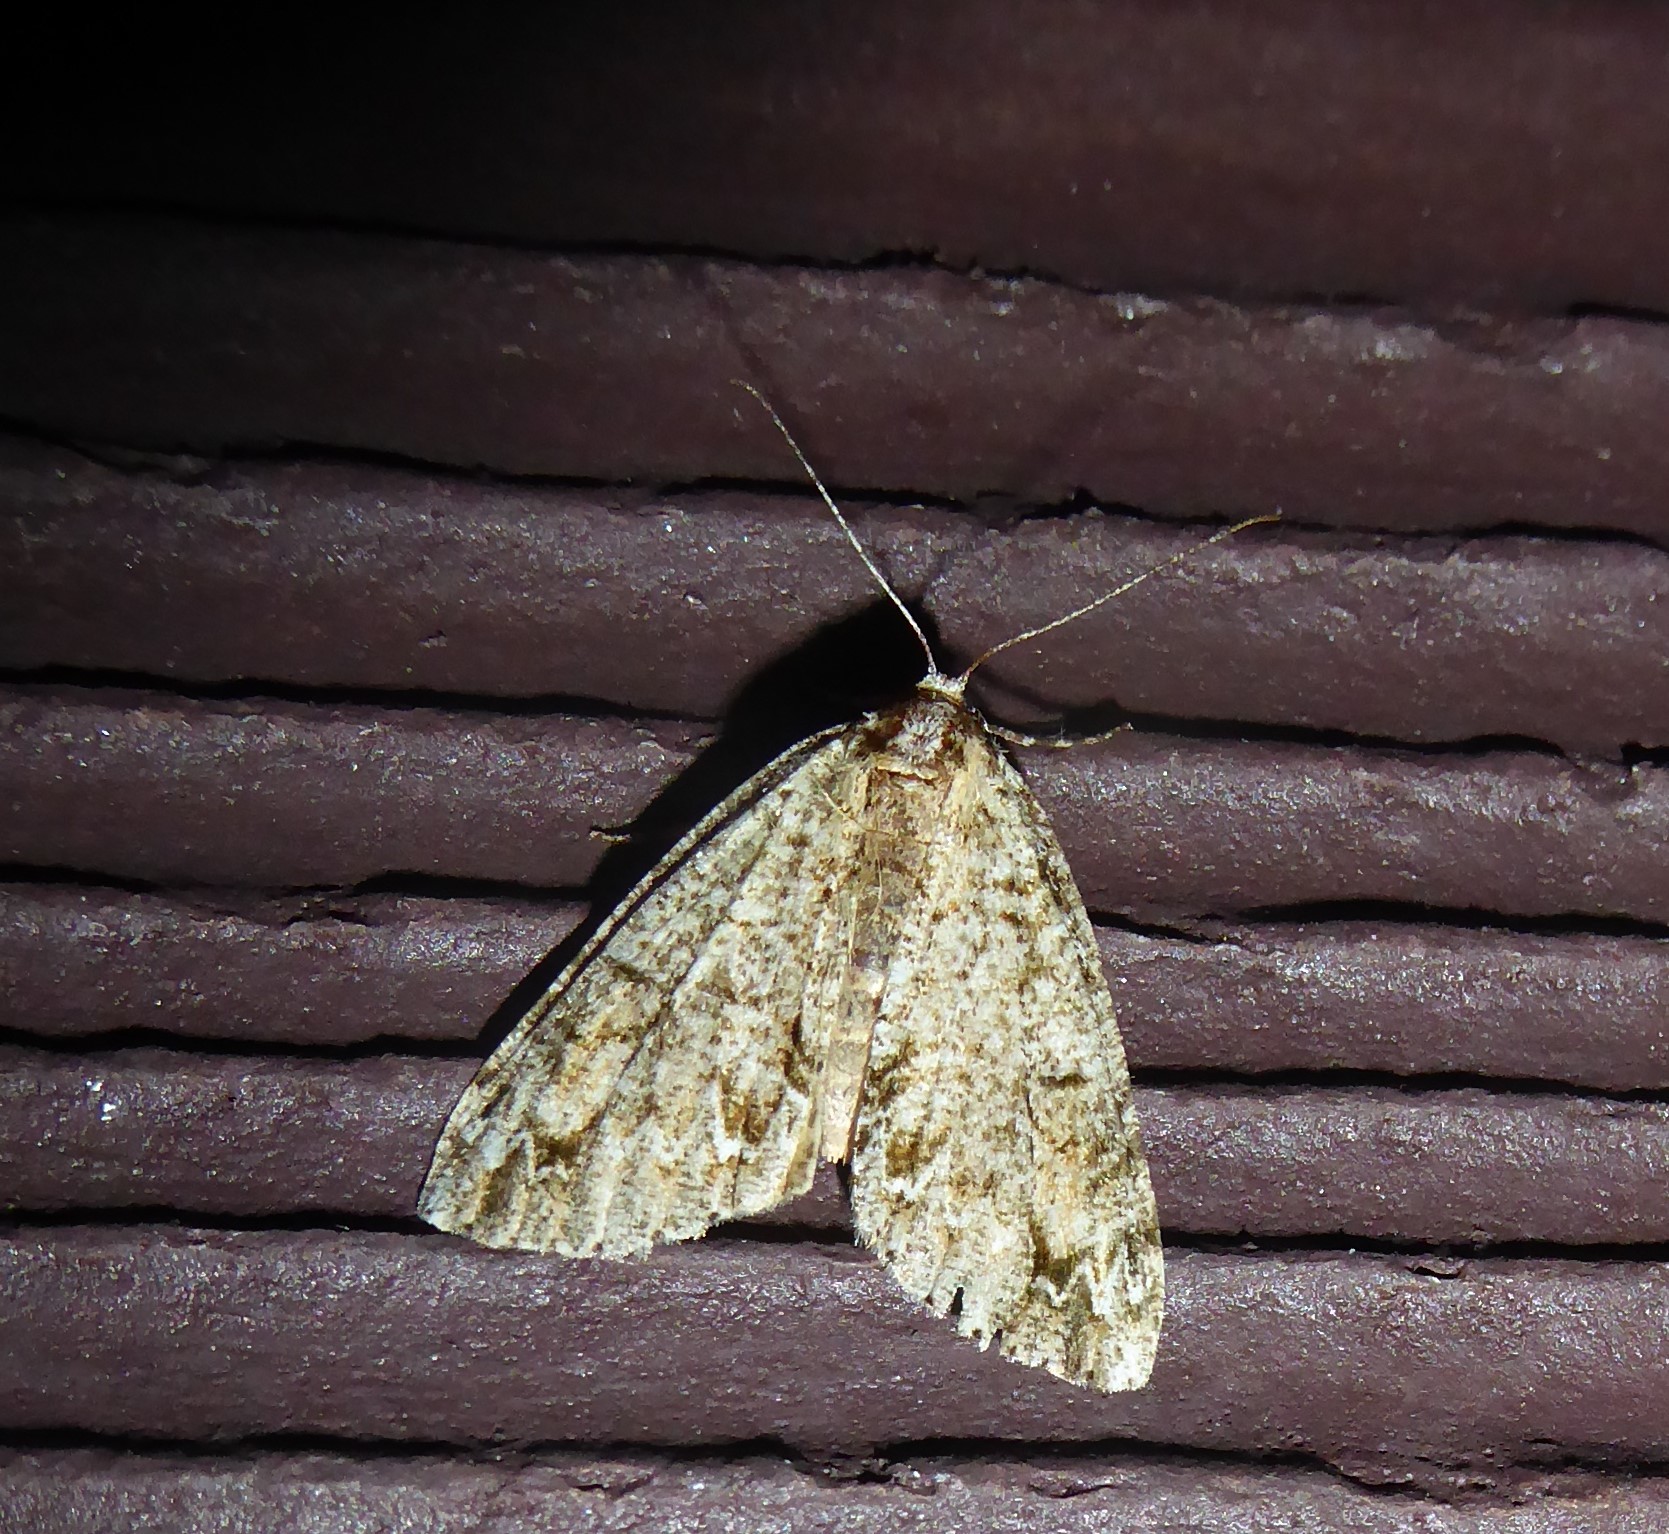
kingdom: Animalia
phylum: Arthropoda
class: Insecta
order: Lepidoptera
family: Geometridae
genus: Pseudocoremia
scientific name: Pseudocoremia suavis
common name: Common forest looper
